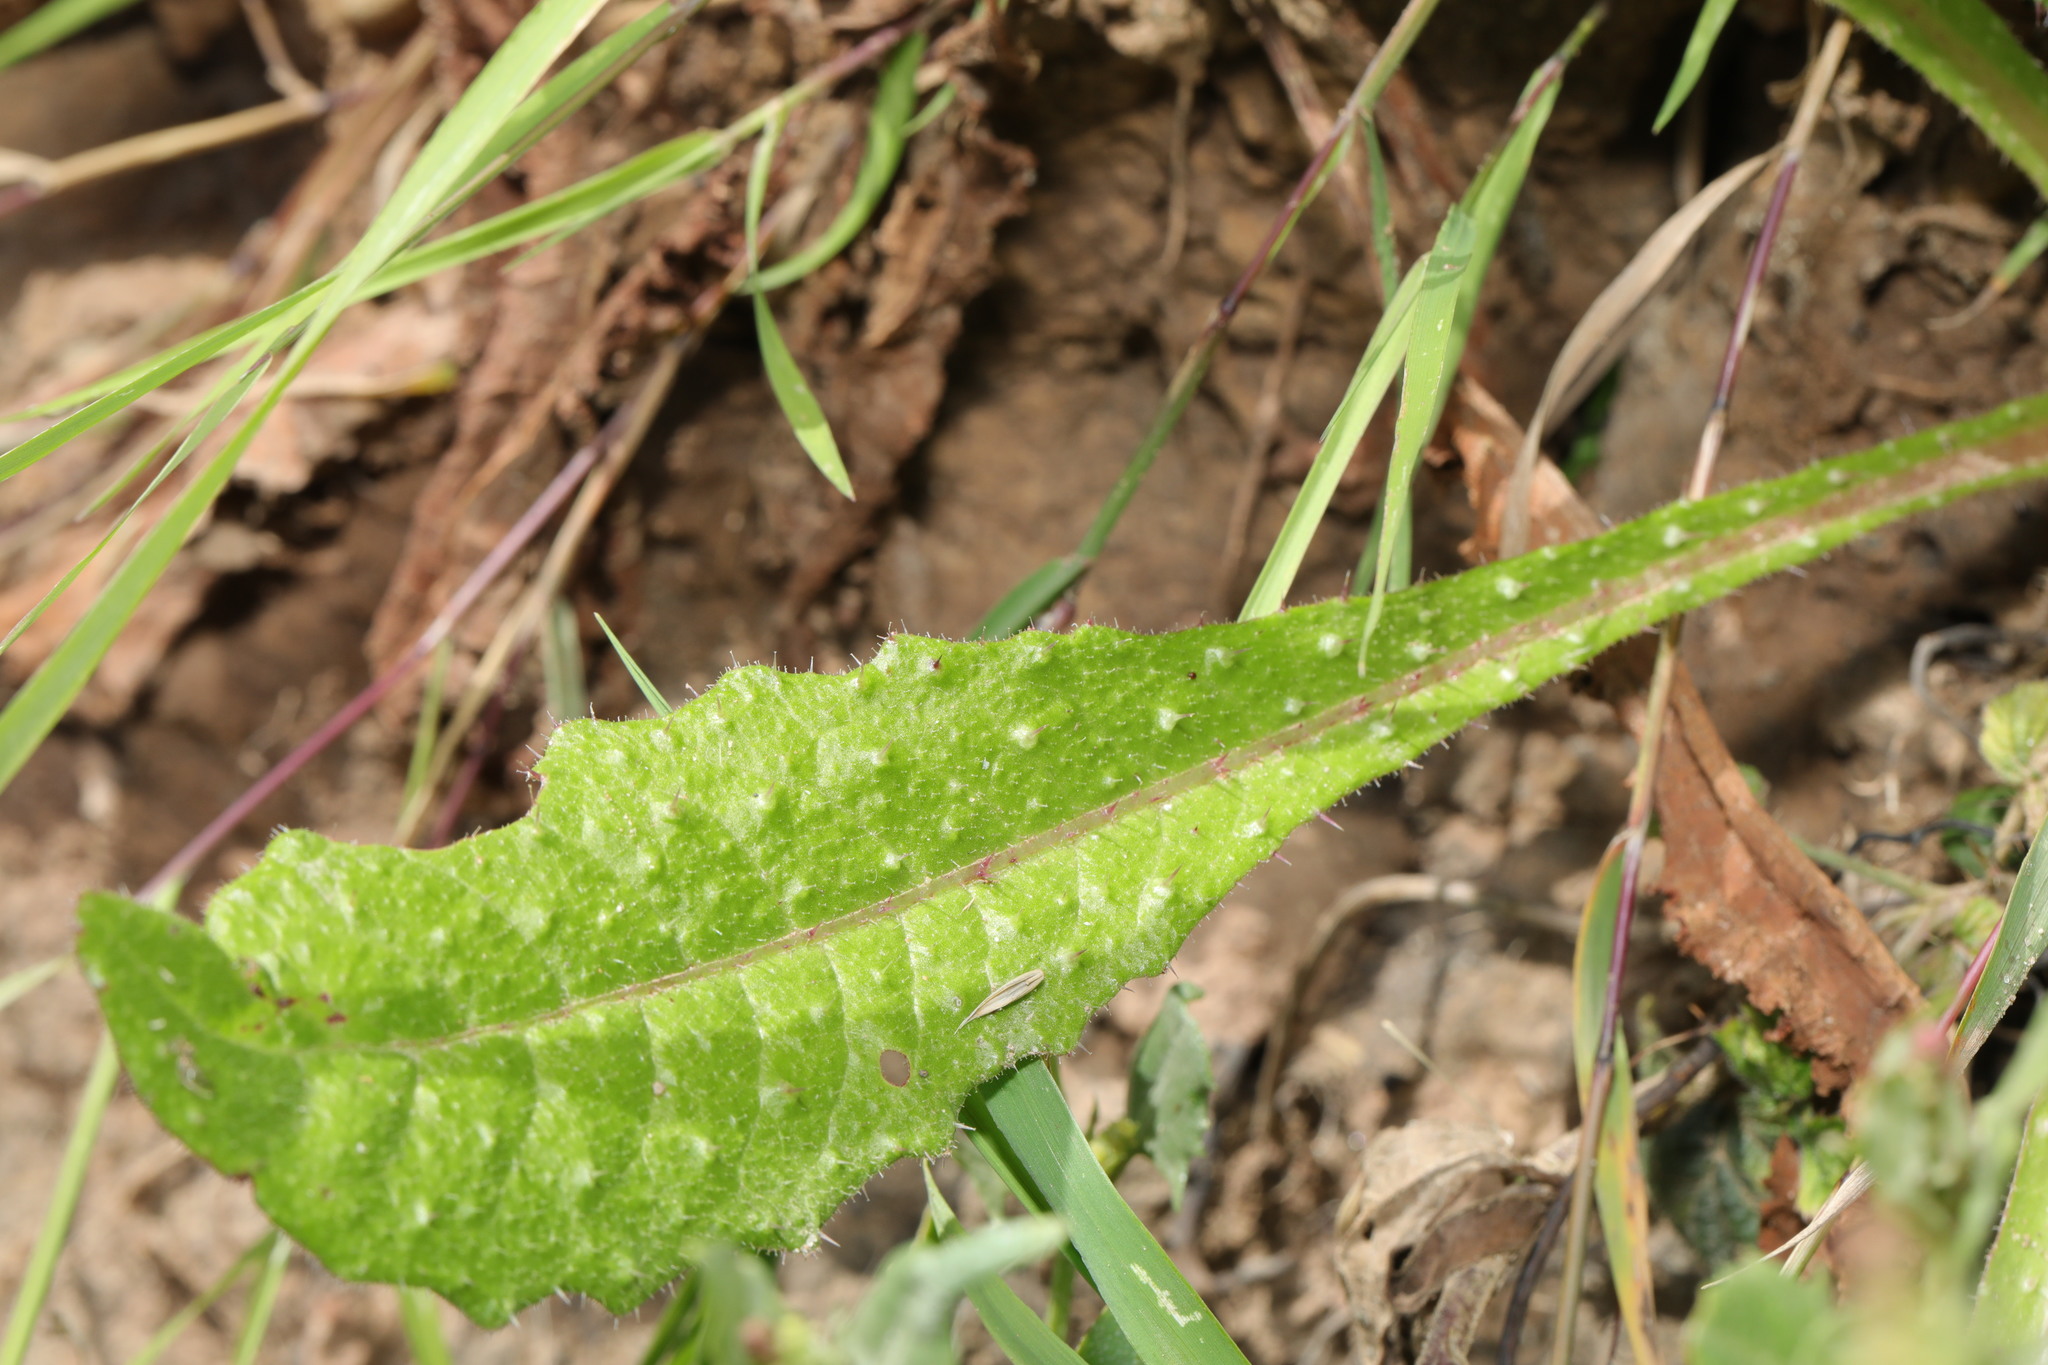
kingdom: Plantae
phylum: Tracheophyta
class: Magnoliopsida
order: Asterales
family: Asteraceae
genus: Helminthotheca
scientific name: Helminthotheca echioides
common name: Ox-tongue
